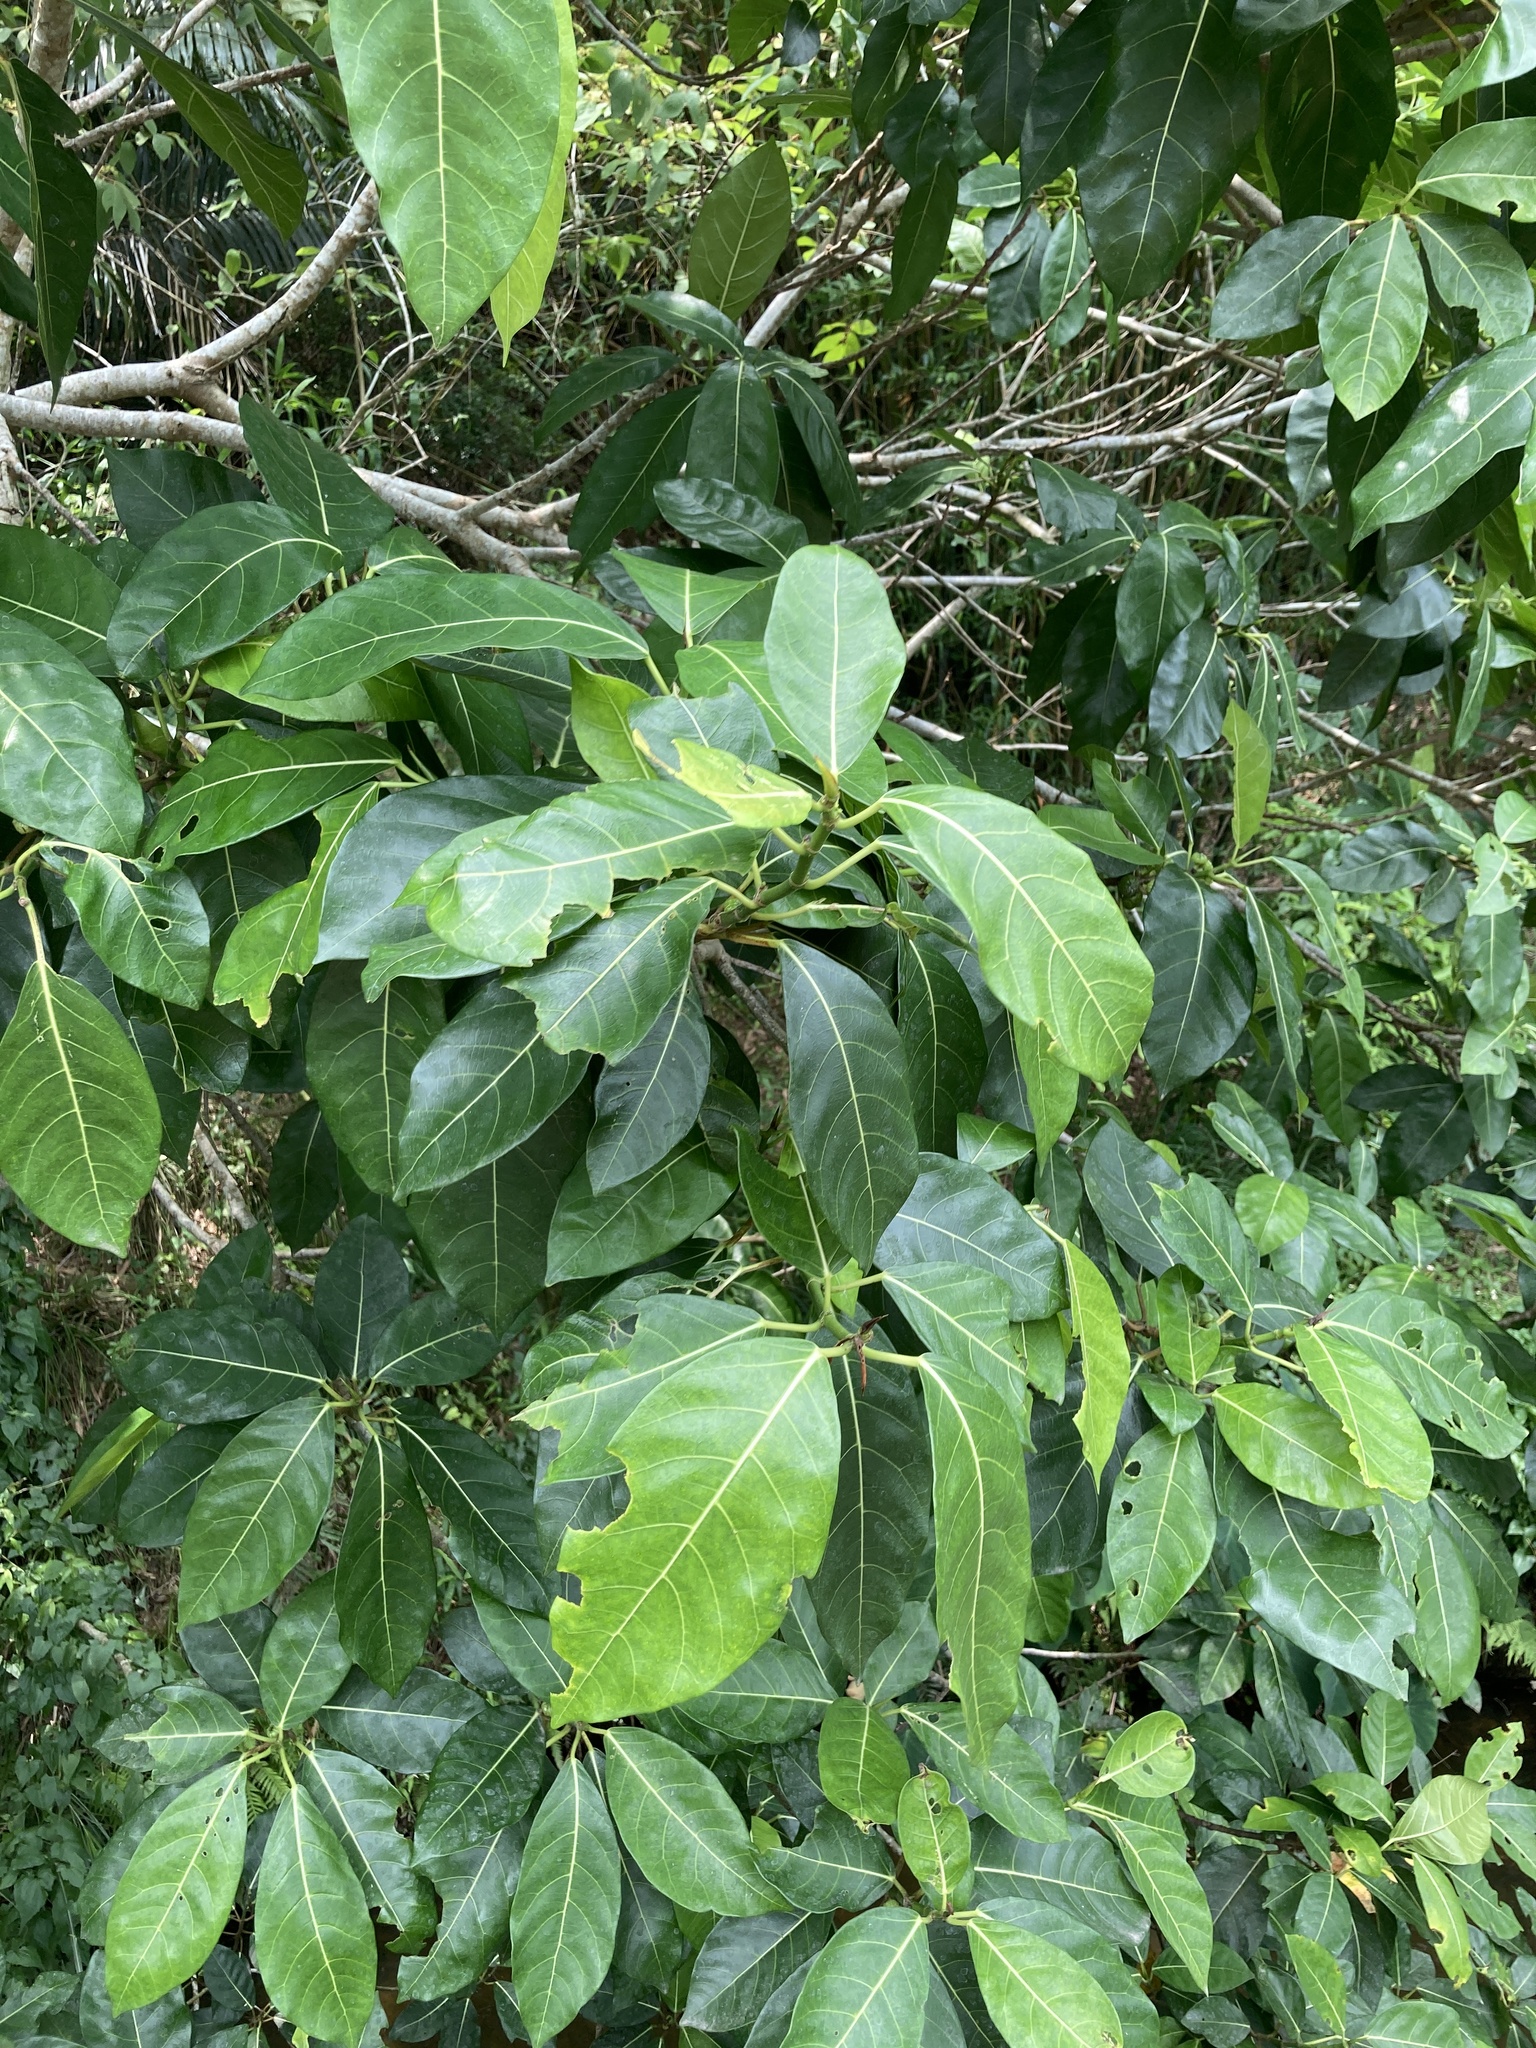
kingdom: Plantae
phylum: Tracheophyta
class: Magnoliopsida
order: Rosales
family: Moraceae
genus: Ficus
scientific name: Ficus septica
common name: Septic fig
